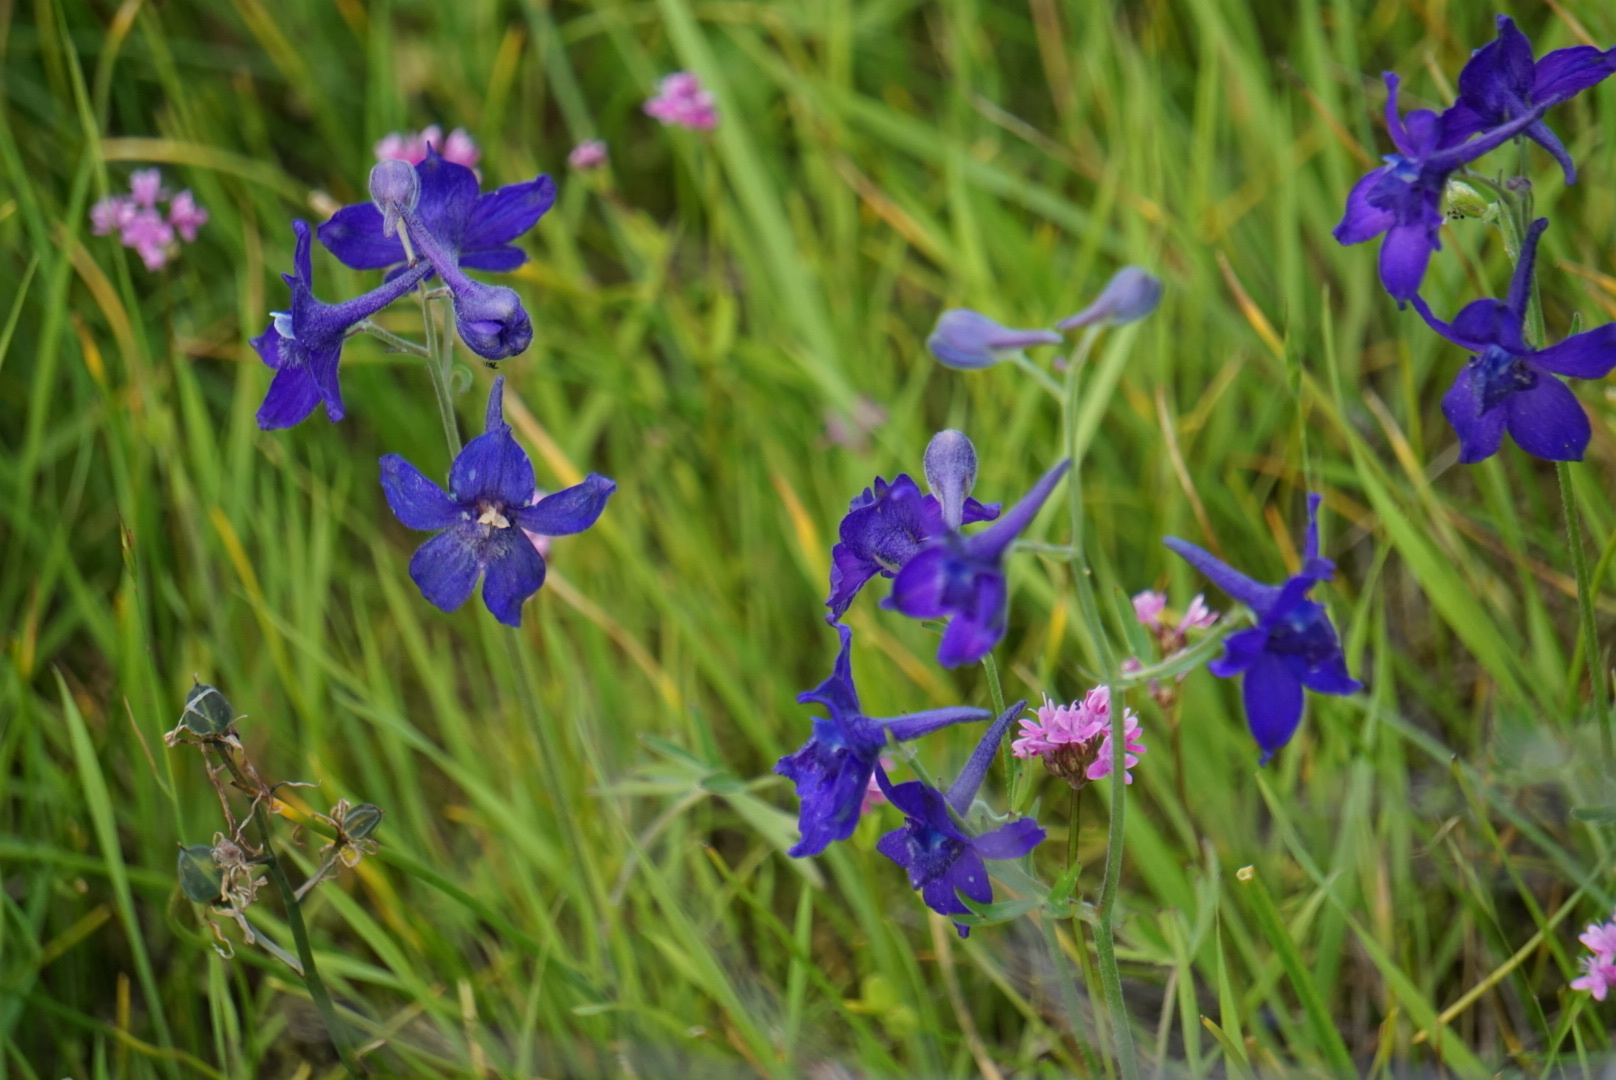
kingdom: Plantae
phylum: Tracheophyta
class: Magnoliopsida
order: Ranunculales
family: Ranunculaceae
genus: Delphinium
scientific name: Delphinium menziesii
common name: Menzies's larkspur
